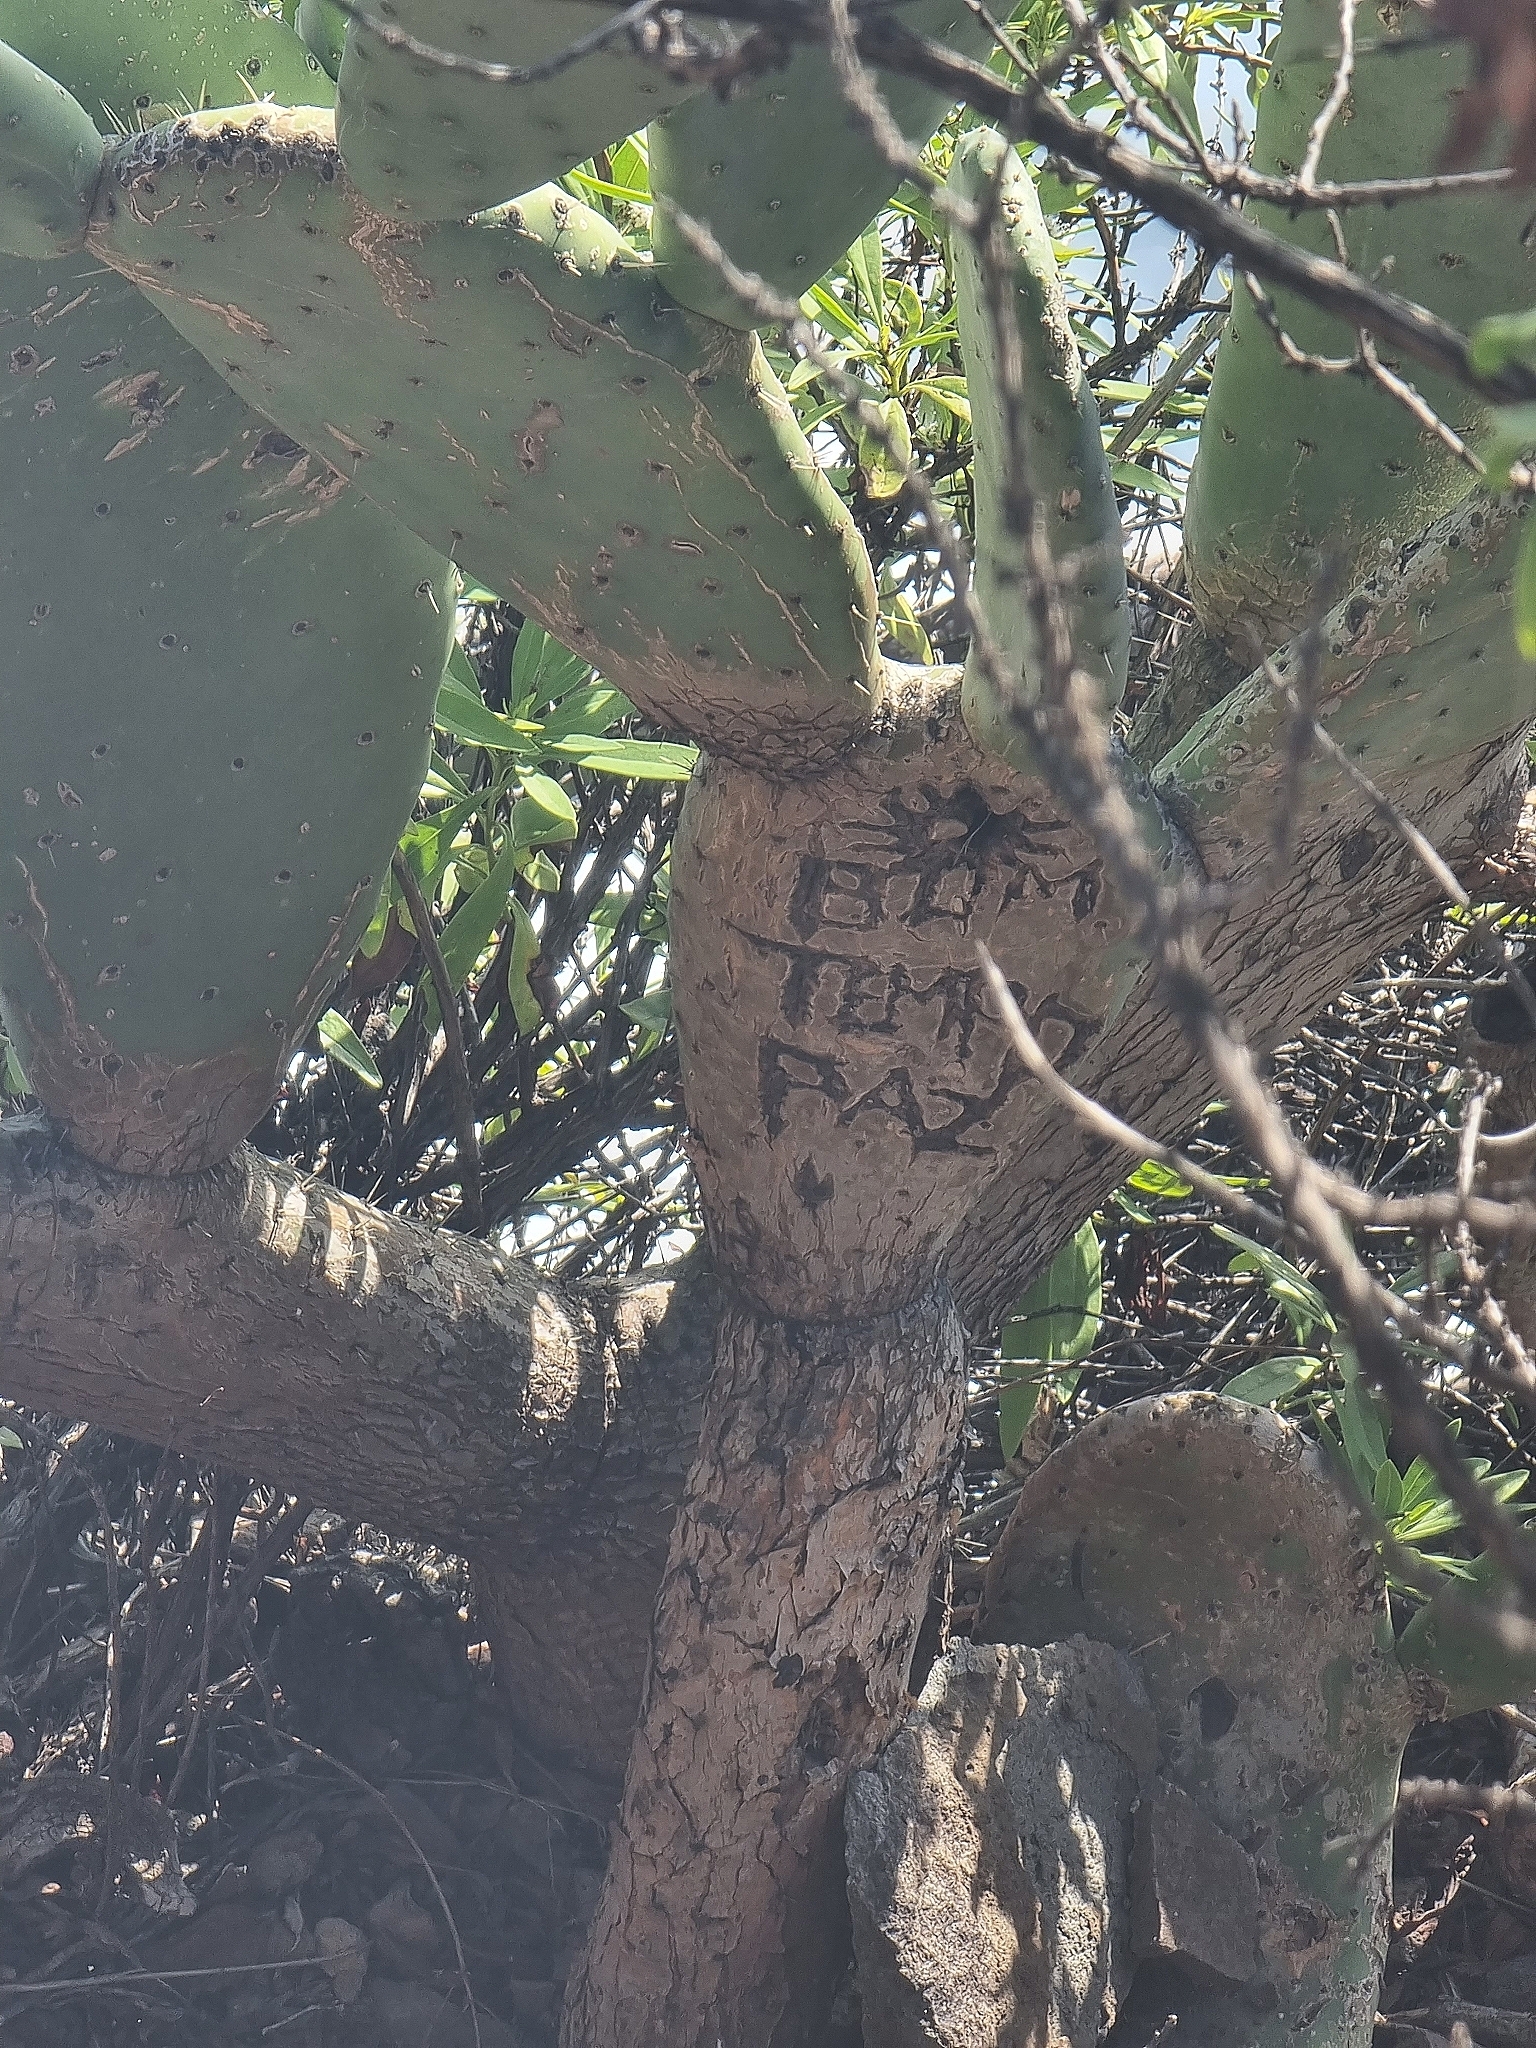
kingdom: Plantae
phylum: Tracheophyta
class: Magnoliopsida
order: Caryophyllales
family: Cactaceae
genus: Opuntia
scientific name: Opuntia ficus-indica
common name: Barbary fig
